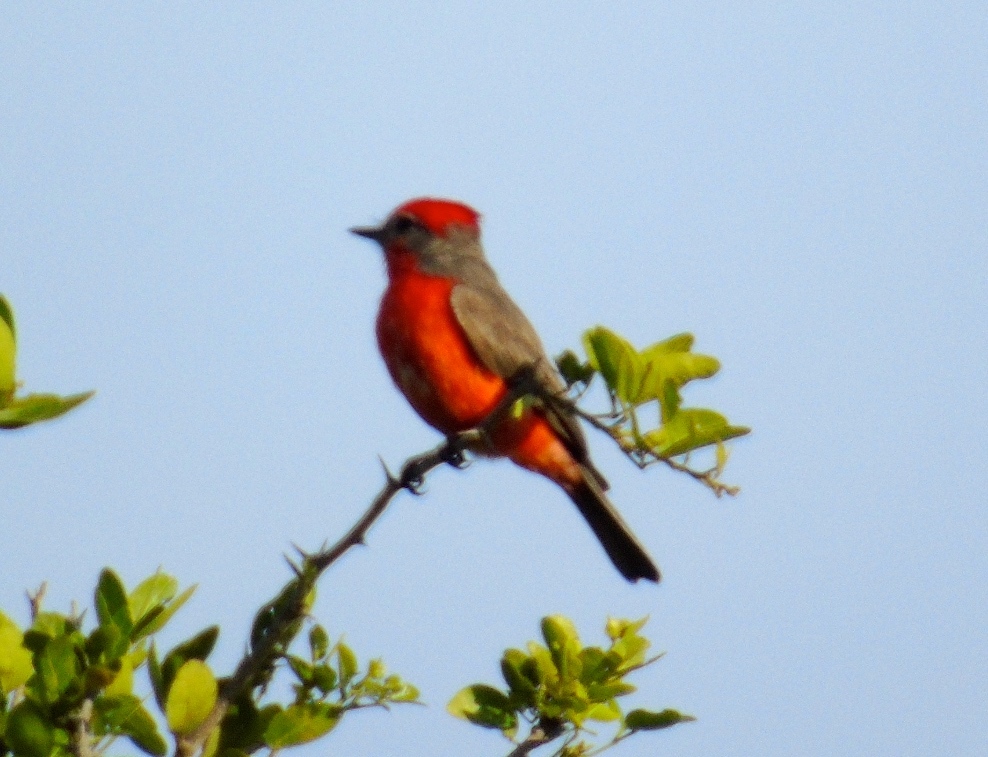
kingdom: Animalia
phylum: Chordata
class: Aves
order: Passeriformes
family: Tyrannidae
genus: Pyrocephalus
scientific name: Pyrocephalus rubinus
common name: Vermilion flycatcher
